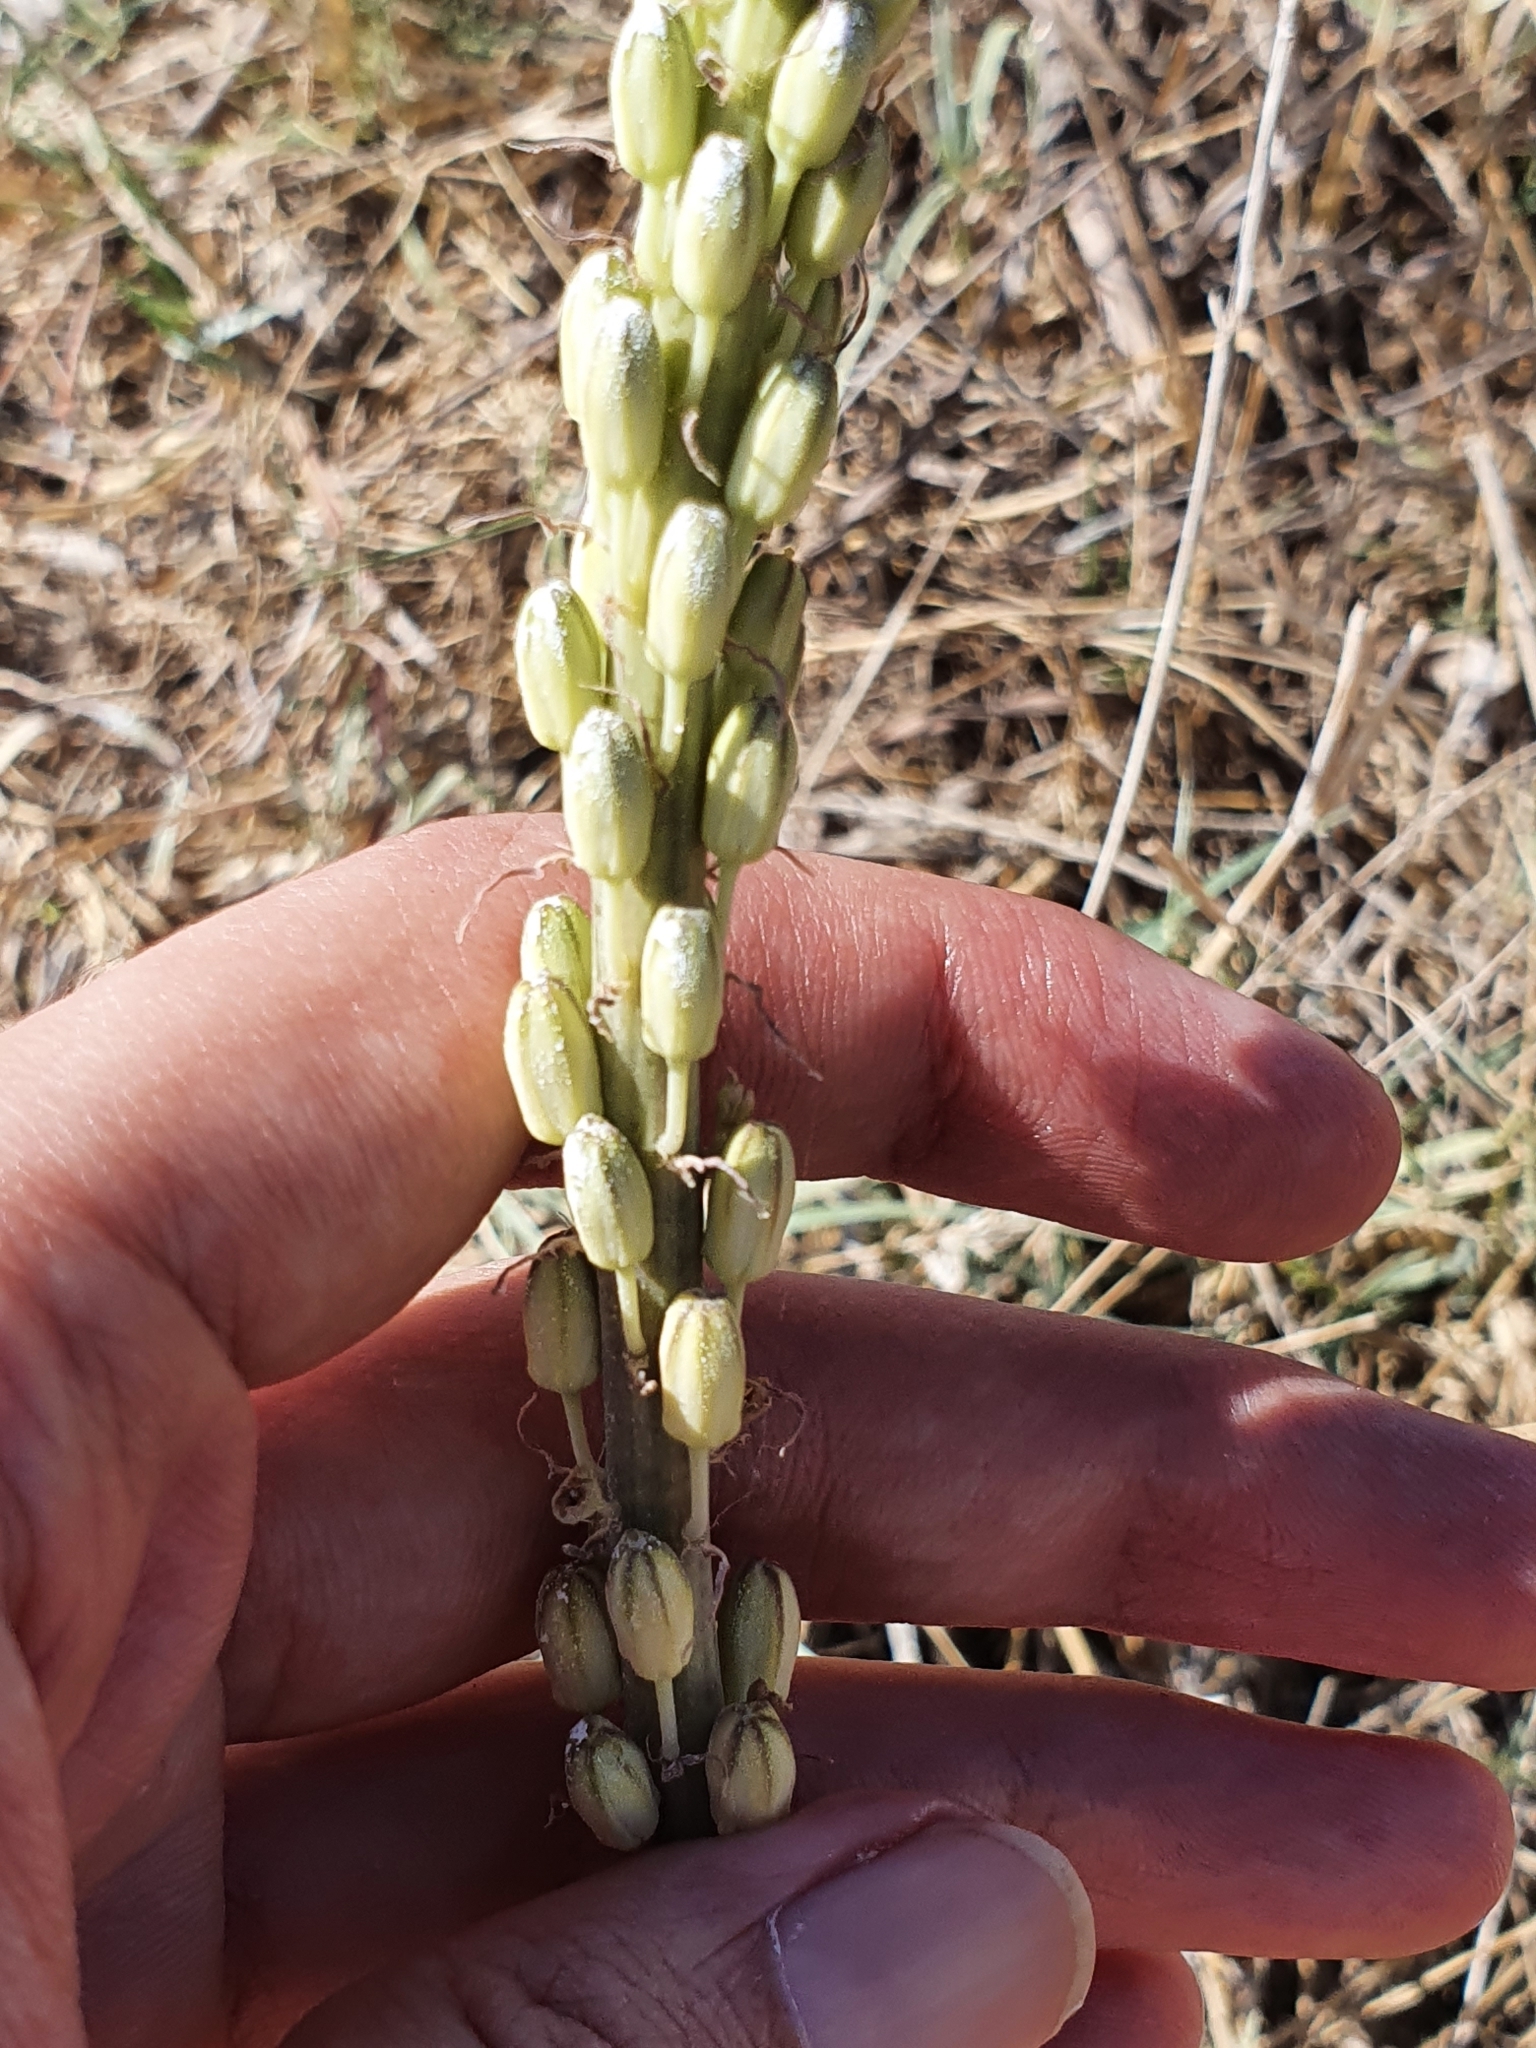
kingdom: Plantae
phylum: Tracheophyta
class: Liliopsida
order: Asparagales
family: Asparagaceae
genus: Drimia
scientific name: Drimia anthericoides
